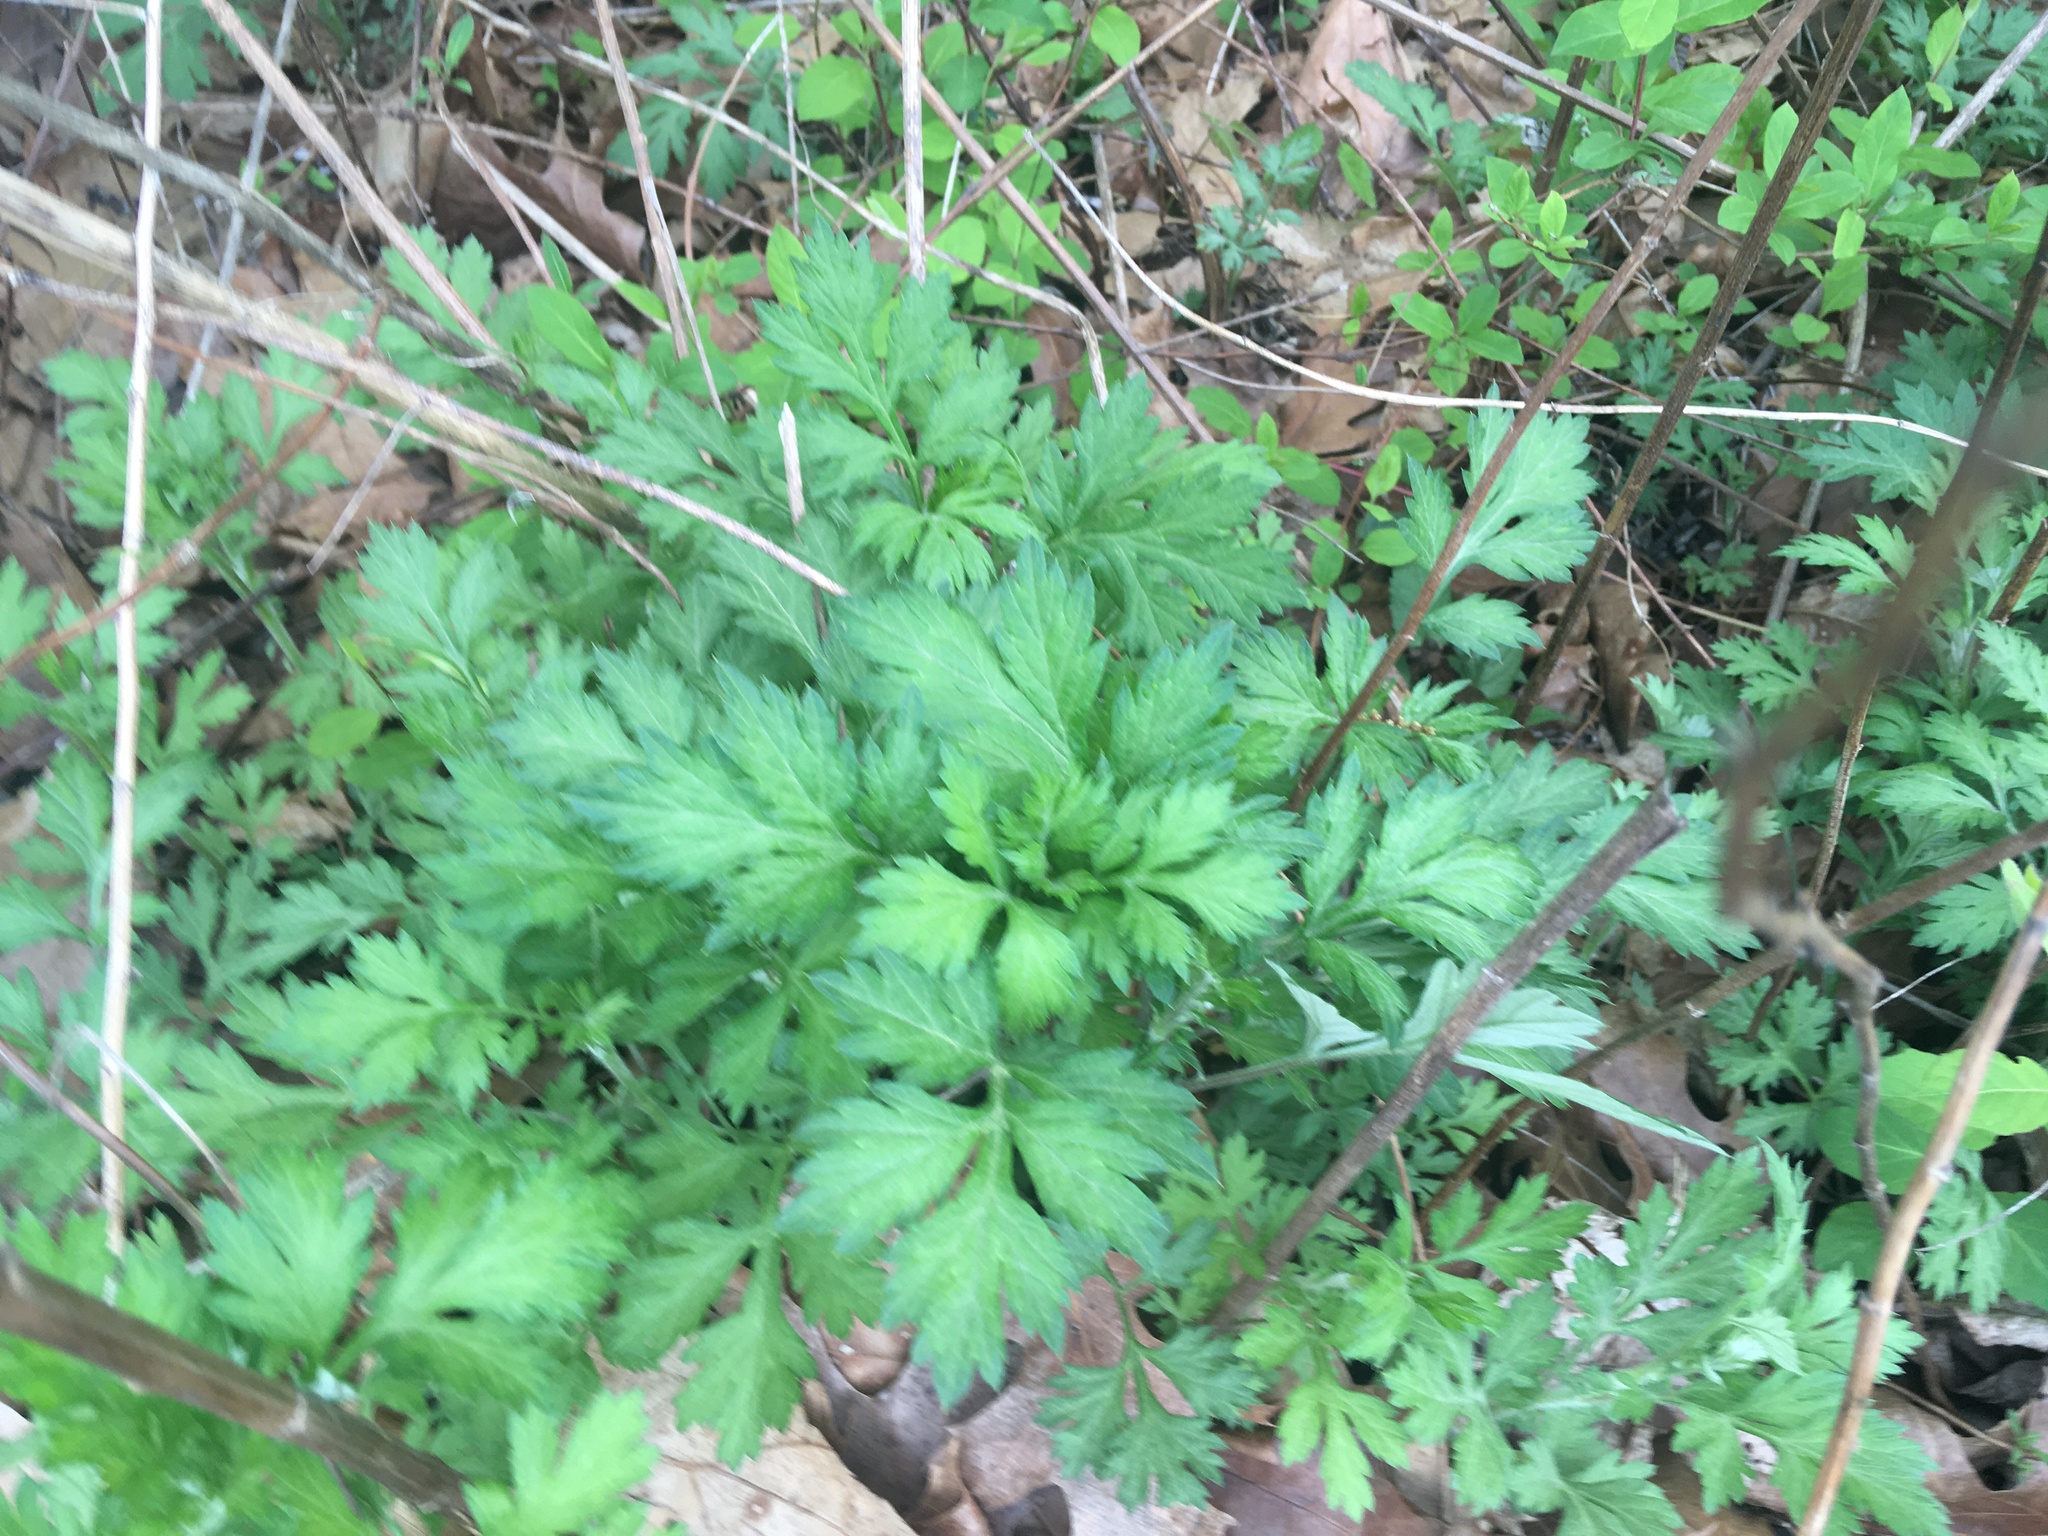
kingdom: Plantae
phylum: Tracheophyta
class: Magnoliopsida
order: Asterales
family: Asteraceae
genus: Artemisia
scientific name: Artemisia vulgaris
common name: Mugwort
